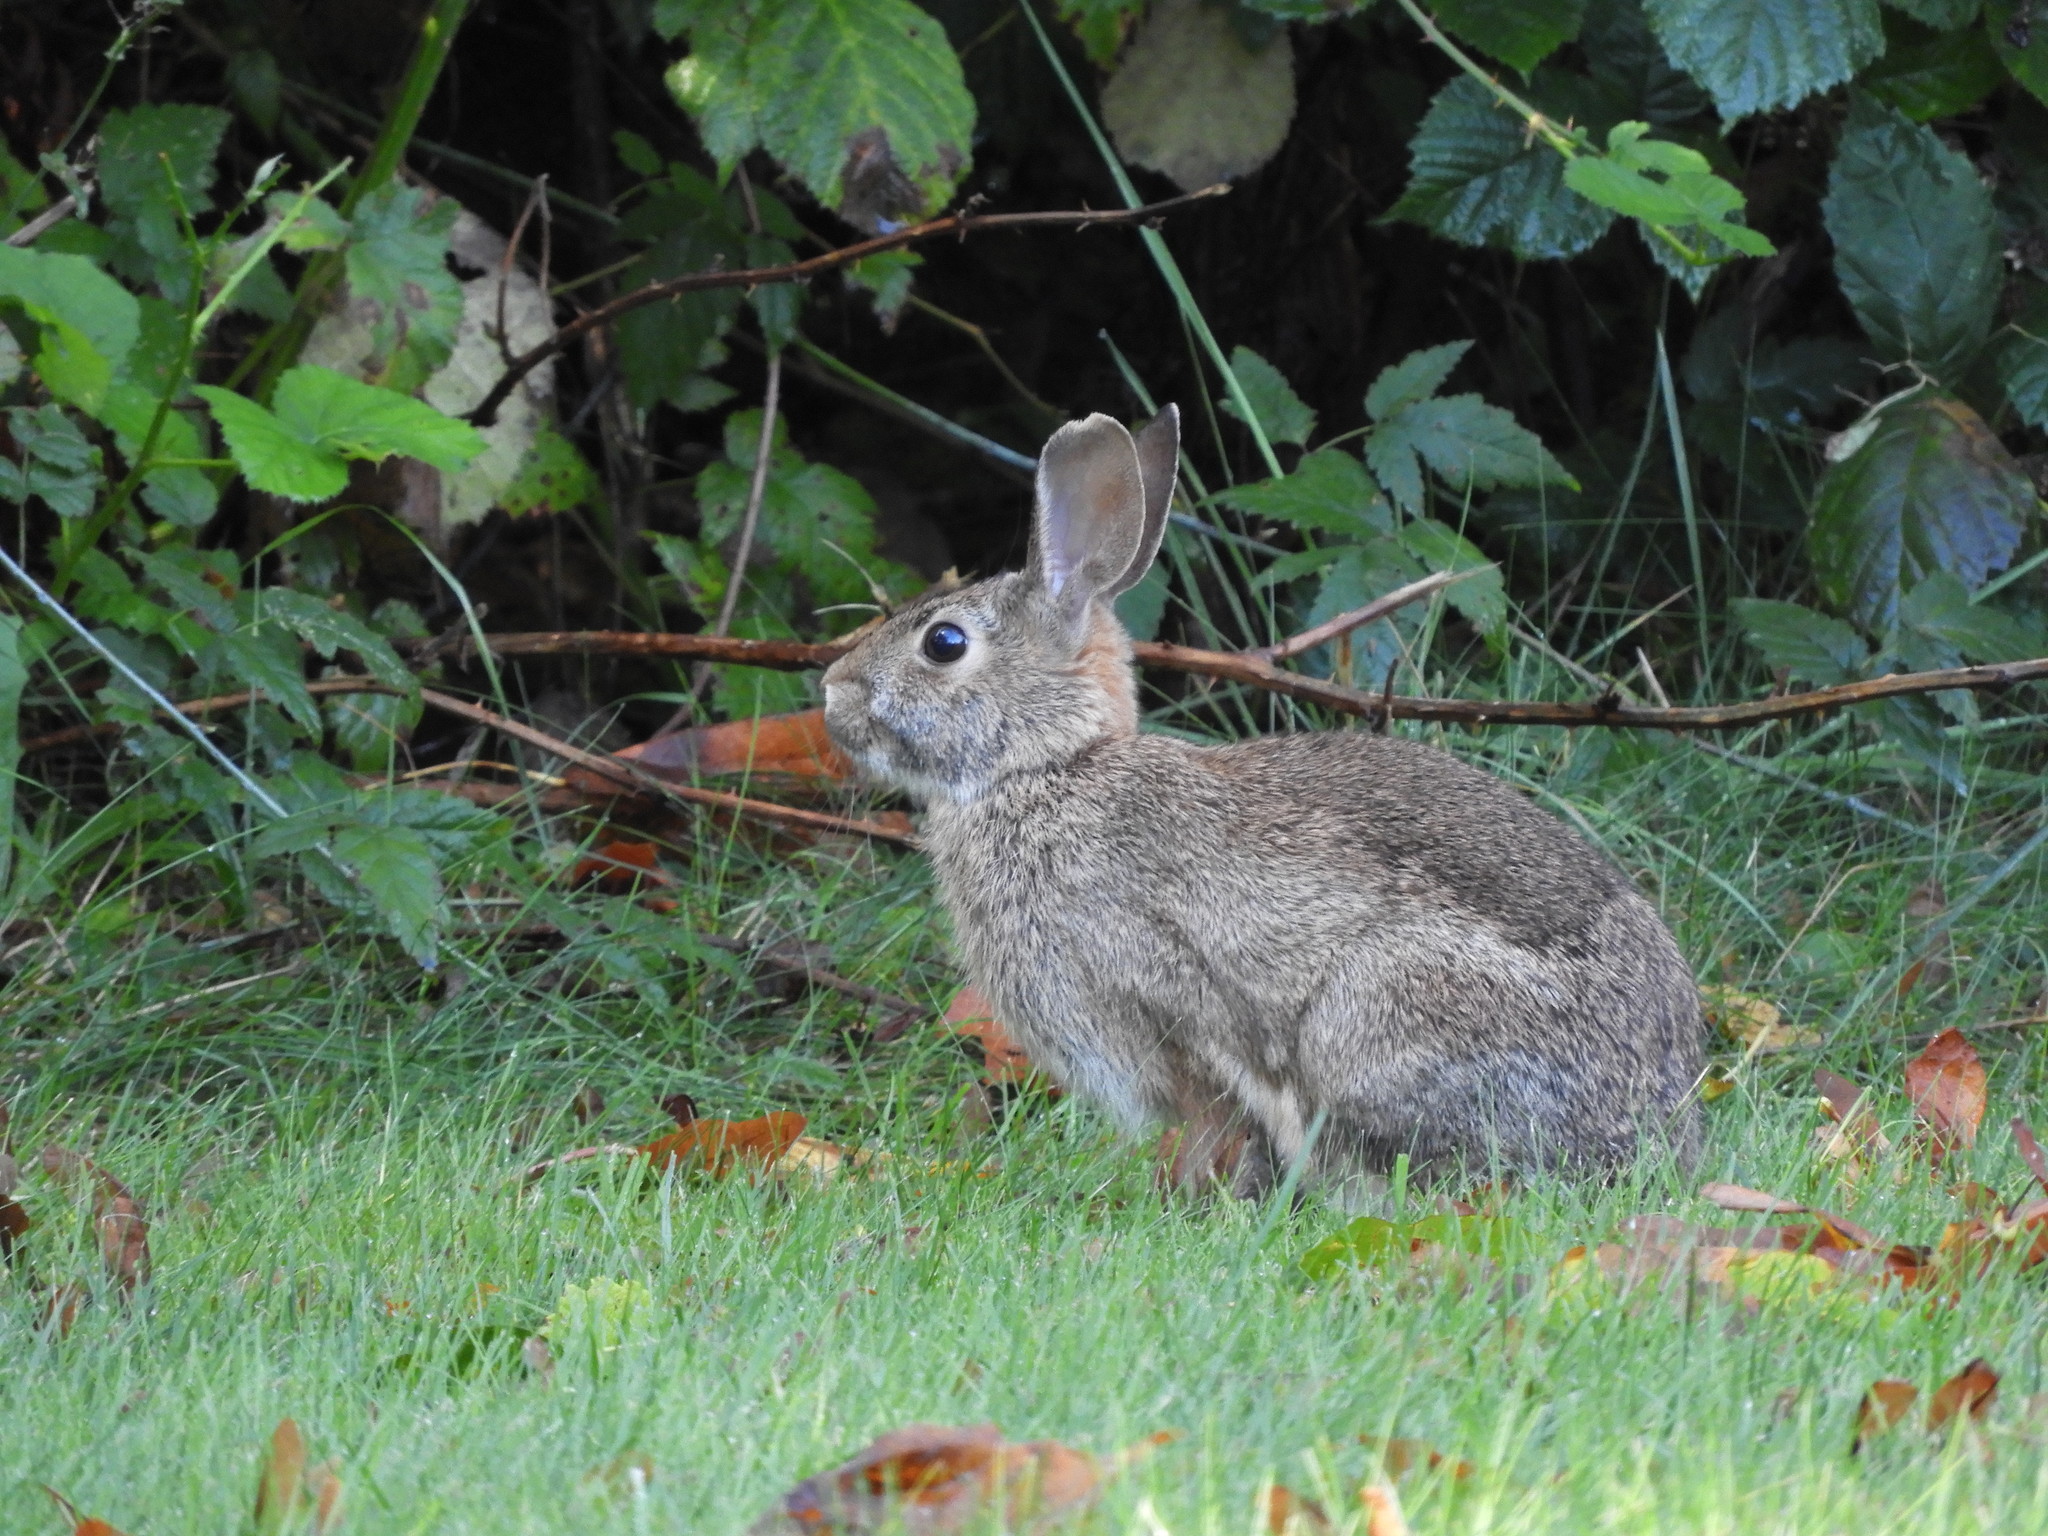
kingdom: Animalia
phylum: Chordata
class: Mammalia
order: Lagomorpha
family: Leporidae
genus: Sylvilagus
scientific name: Sylvilagus floridanus
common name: Eastern cottontail
